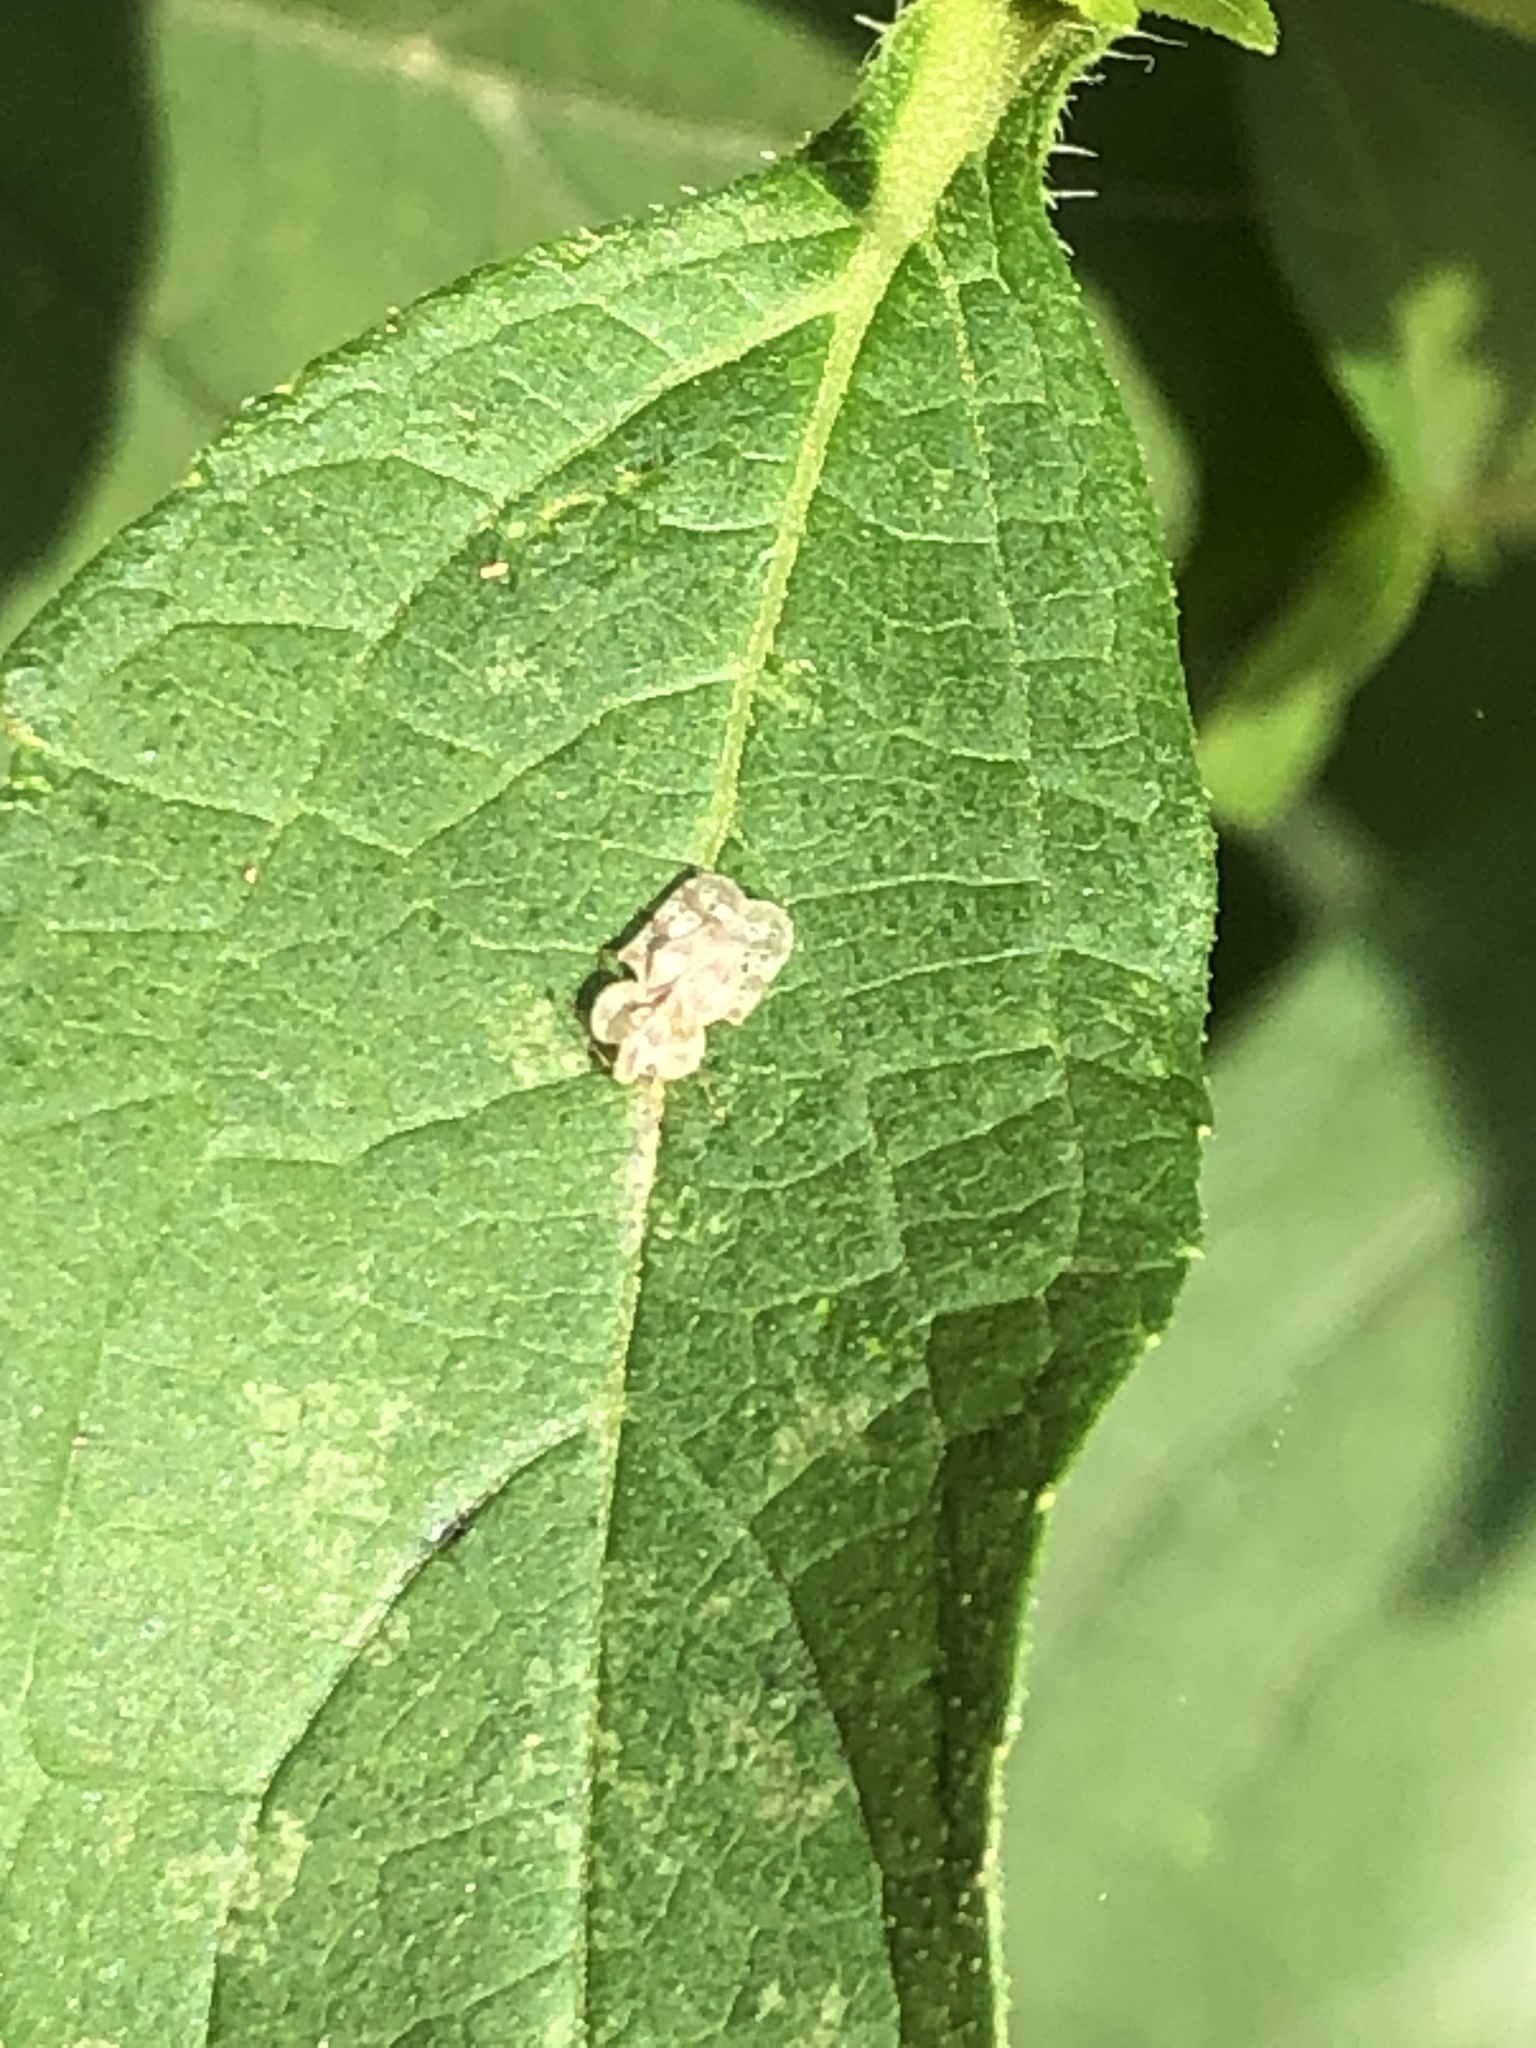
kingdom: Animalia
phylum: Arthropoda
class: Insecta
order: Hemiptera
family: Tingidae
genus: Corythucha
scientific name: Corythucha marmorata
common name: Chrysanthemum lace bug
